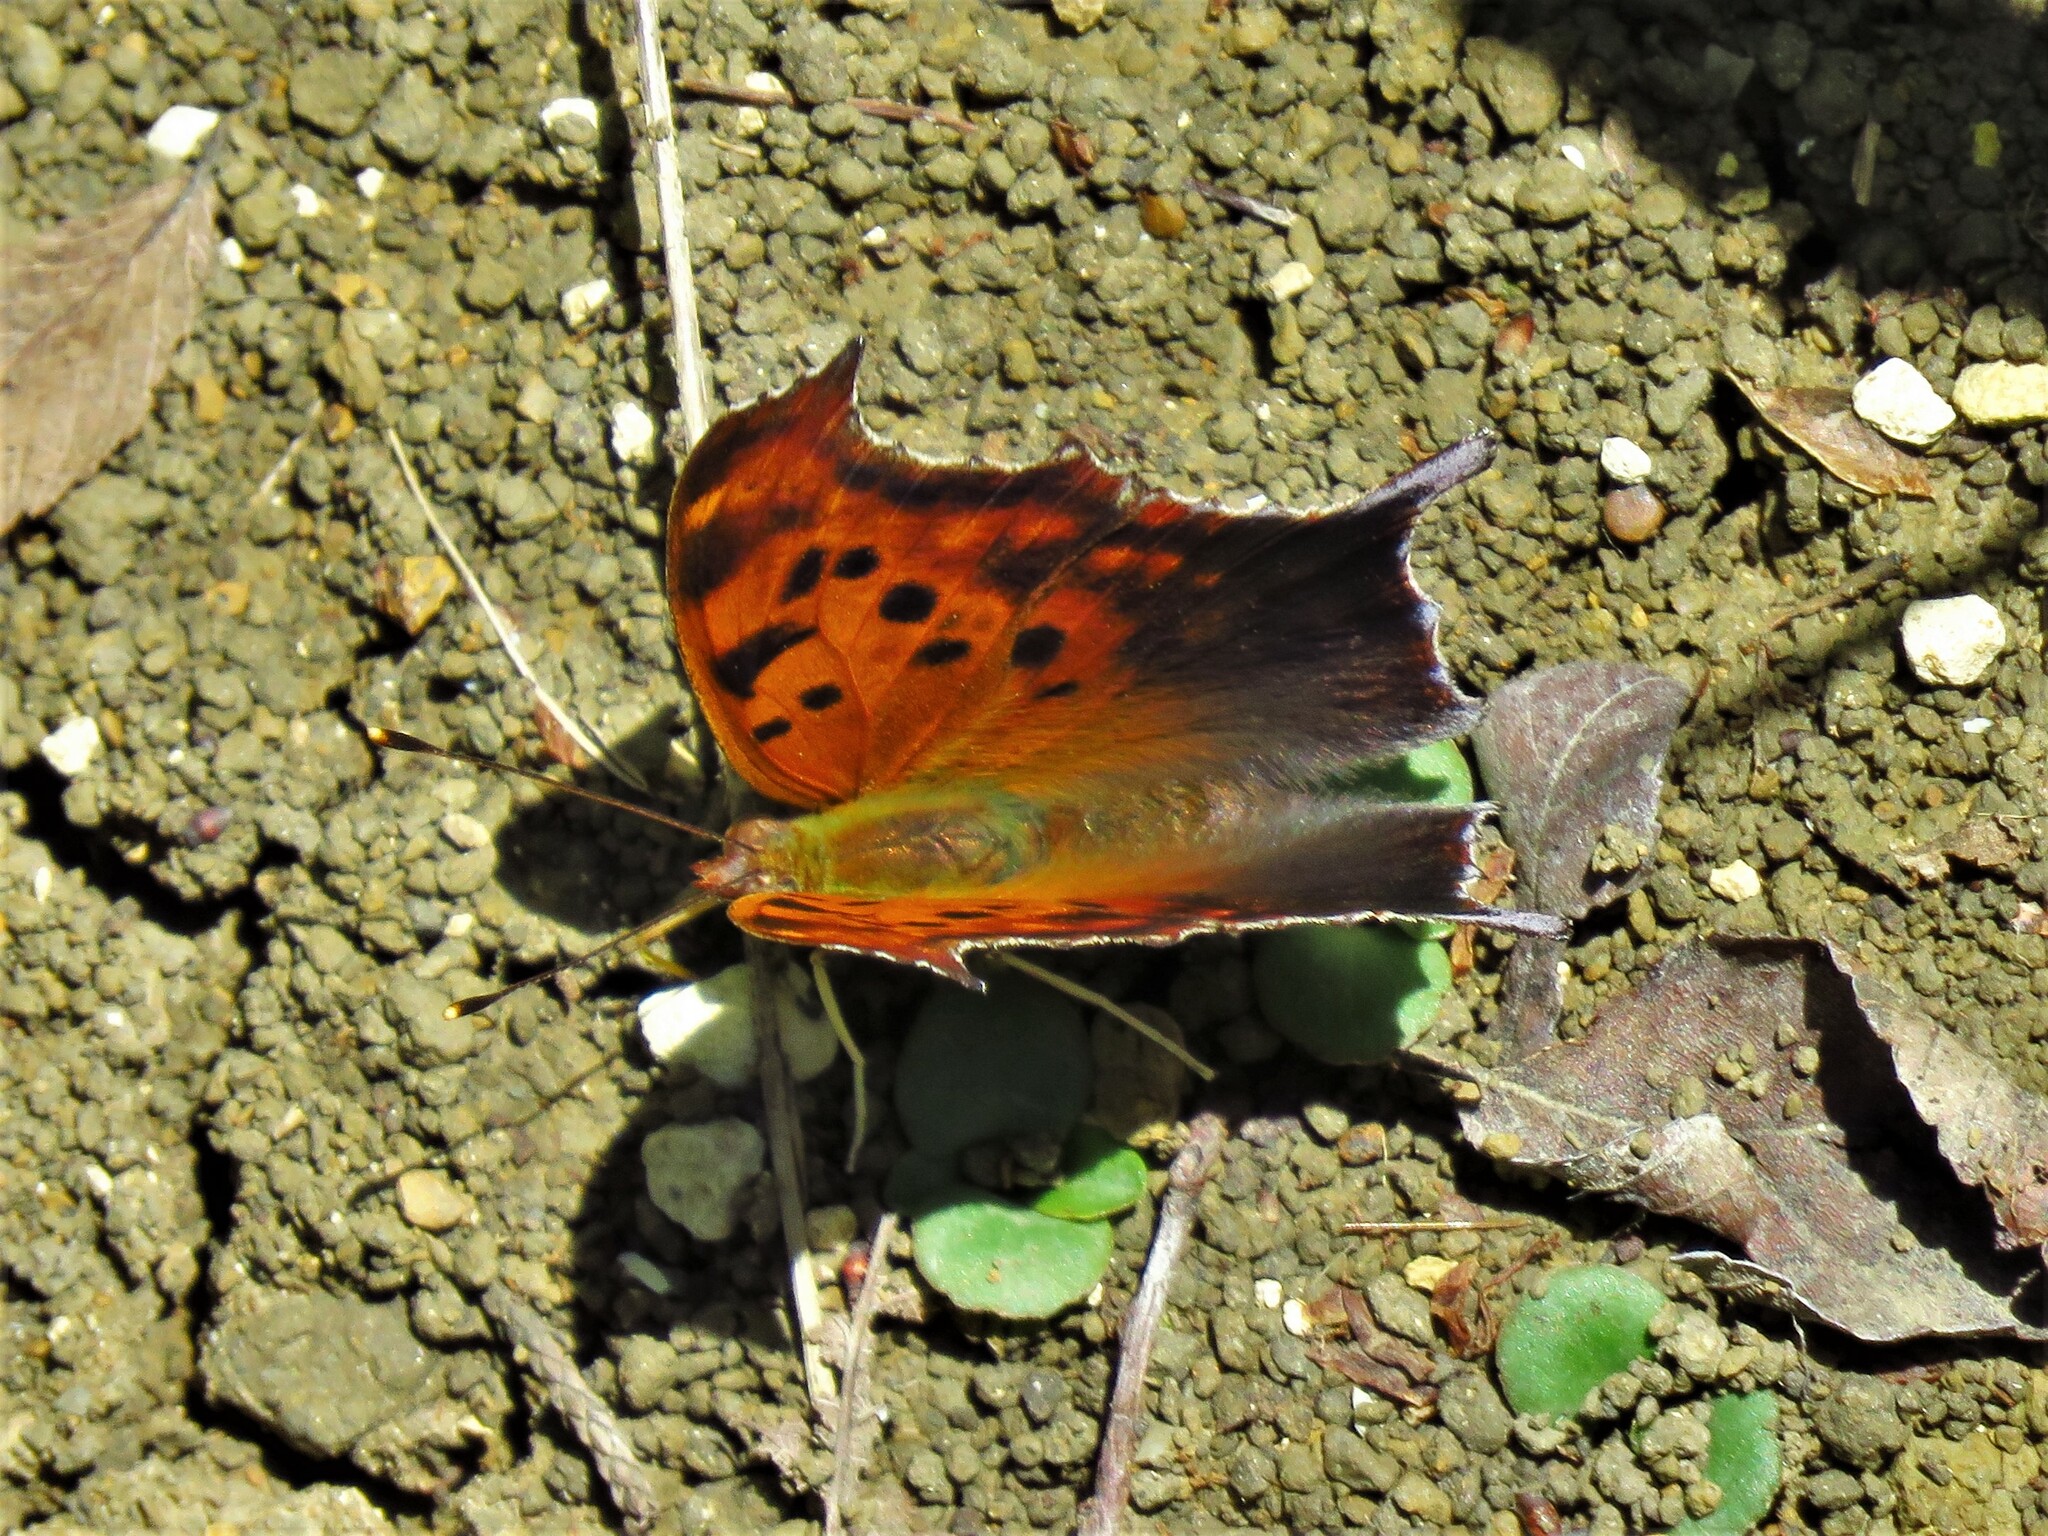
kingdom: Animalia
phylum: Arthropoda
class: Insecta
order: Lepidoptera
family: Nymphalidae
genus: Polygonia
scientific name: Polygonia interrogationis
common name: Question mark
